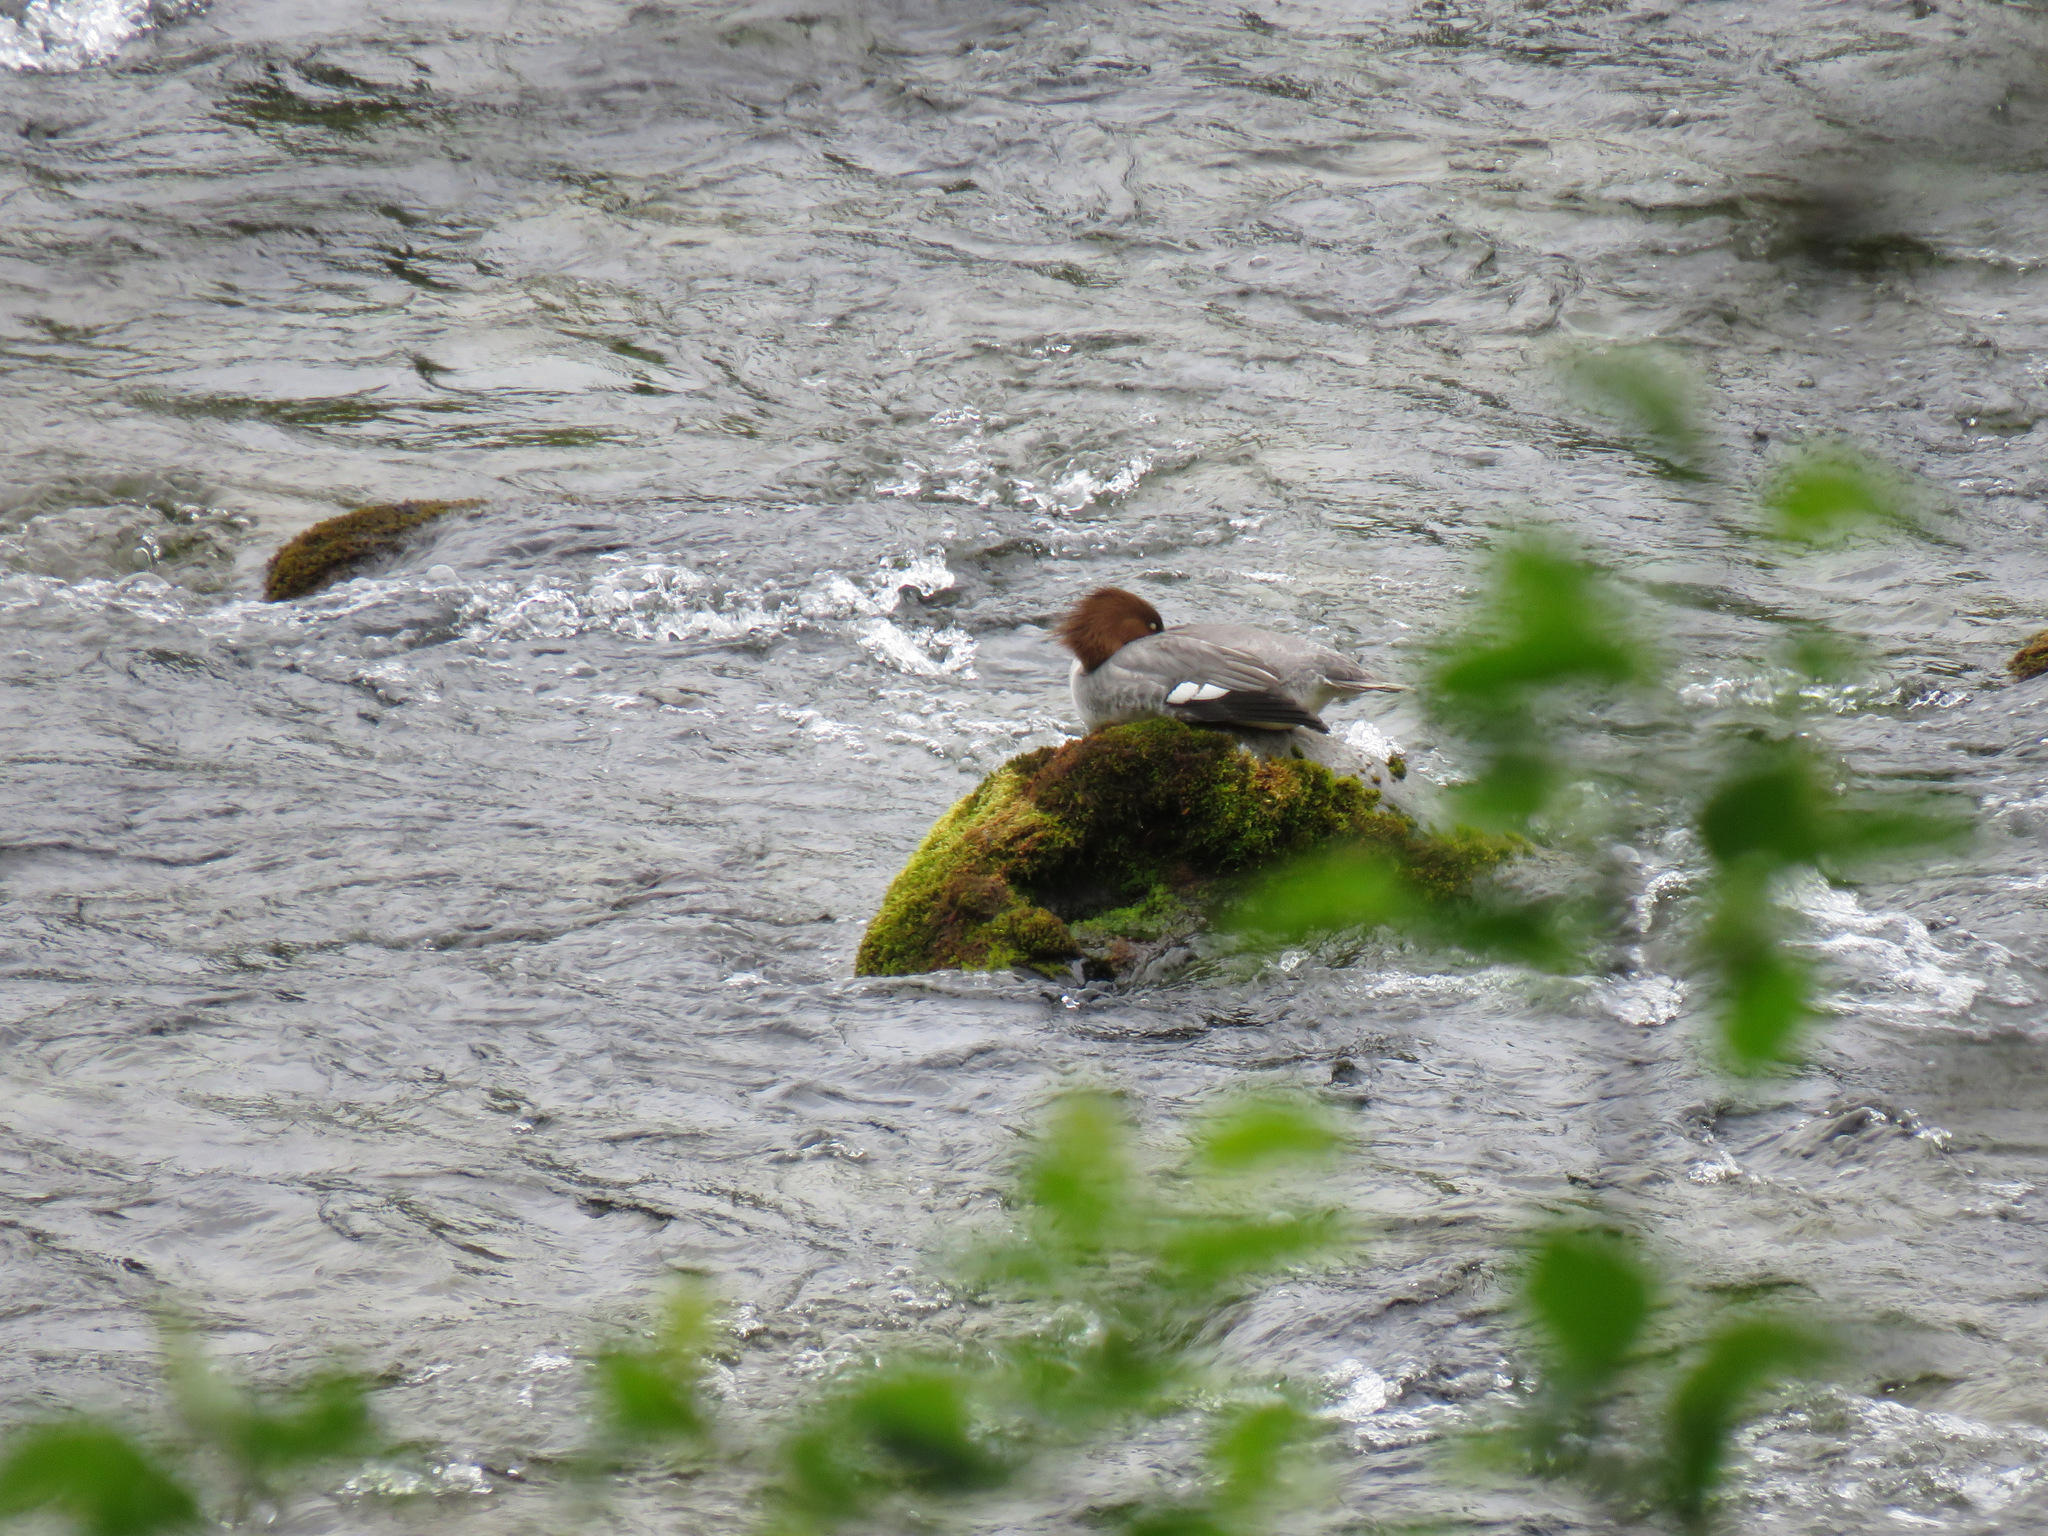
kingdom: Animalia
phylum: Chordata
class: Aves
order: Anseriformes
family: Anatidae
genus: Mergus
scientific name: Mergus merganser
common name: Common merganser
